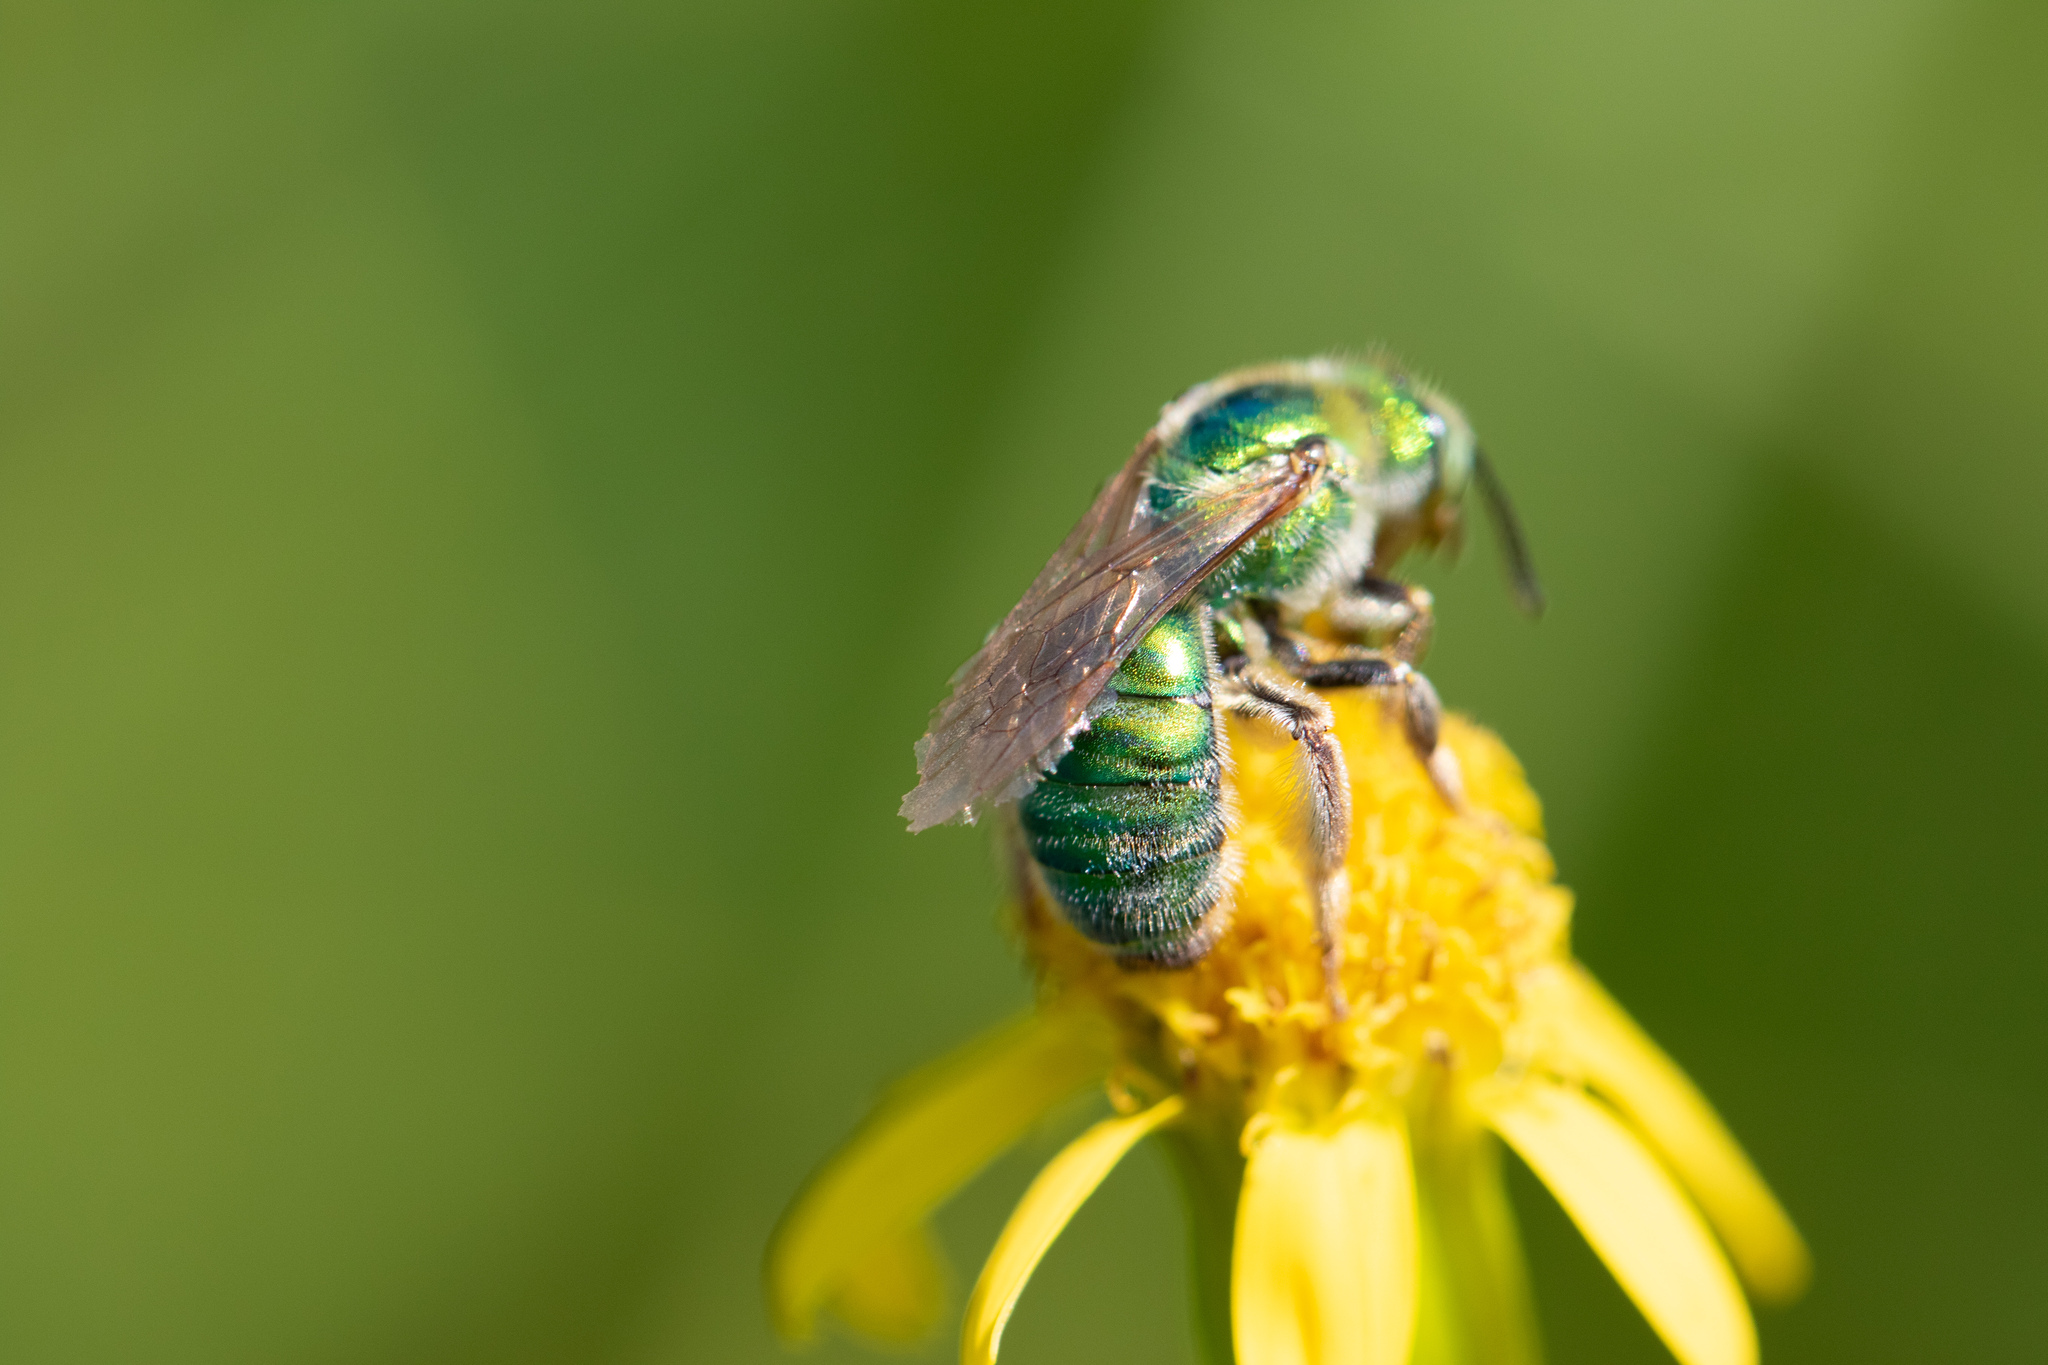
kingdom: Animalia
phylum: Arthropoda
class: Insecta
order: Hymenoptera
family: Halictidae
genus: Agapostemon
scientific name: Agapostemon texanus
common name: Texas striped sweat bee
